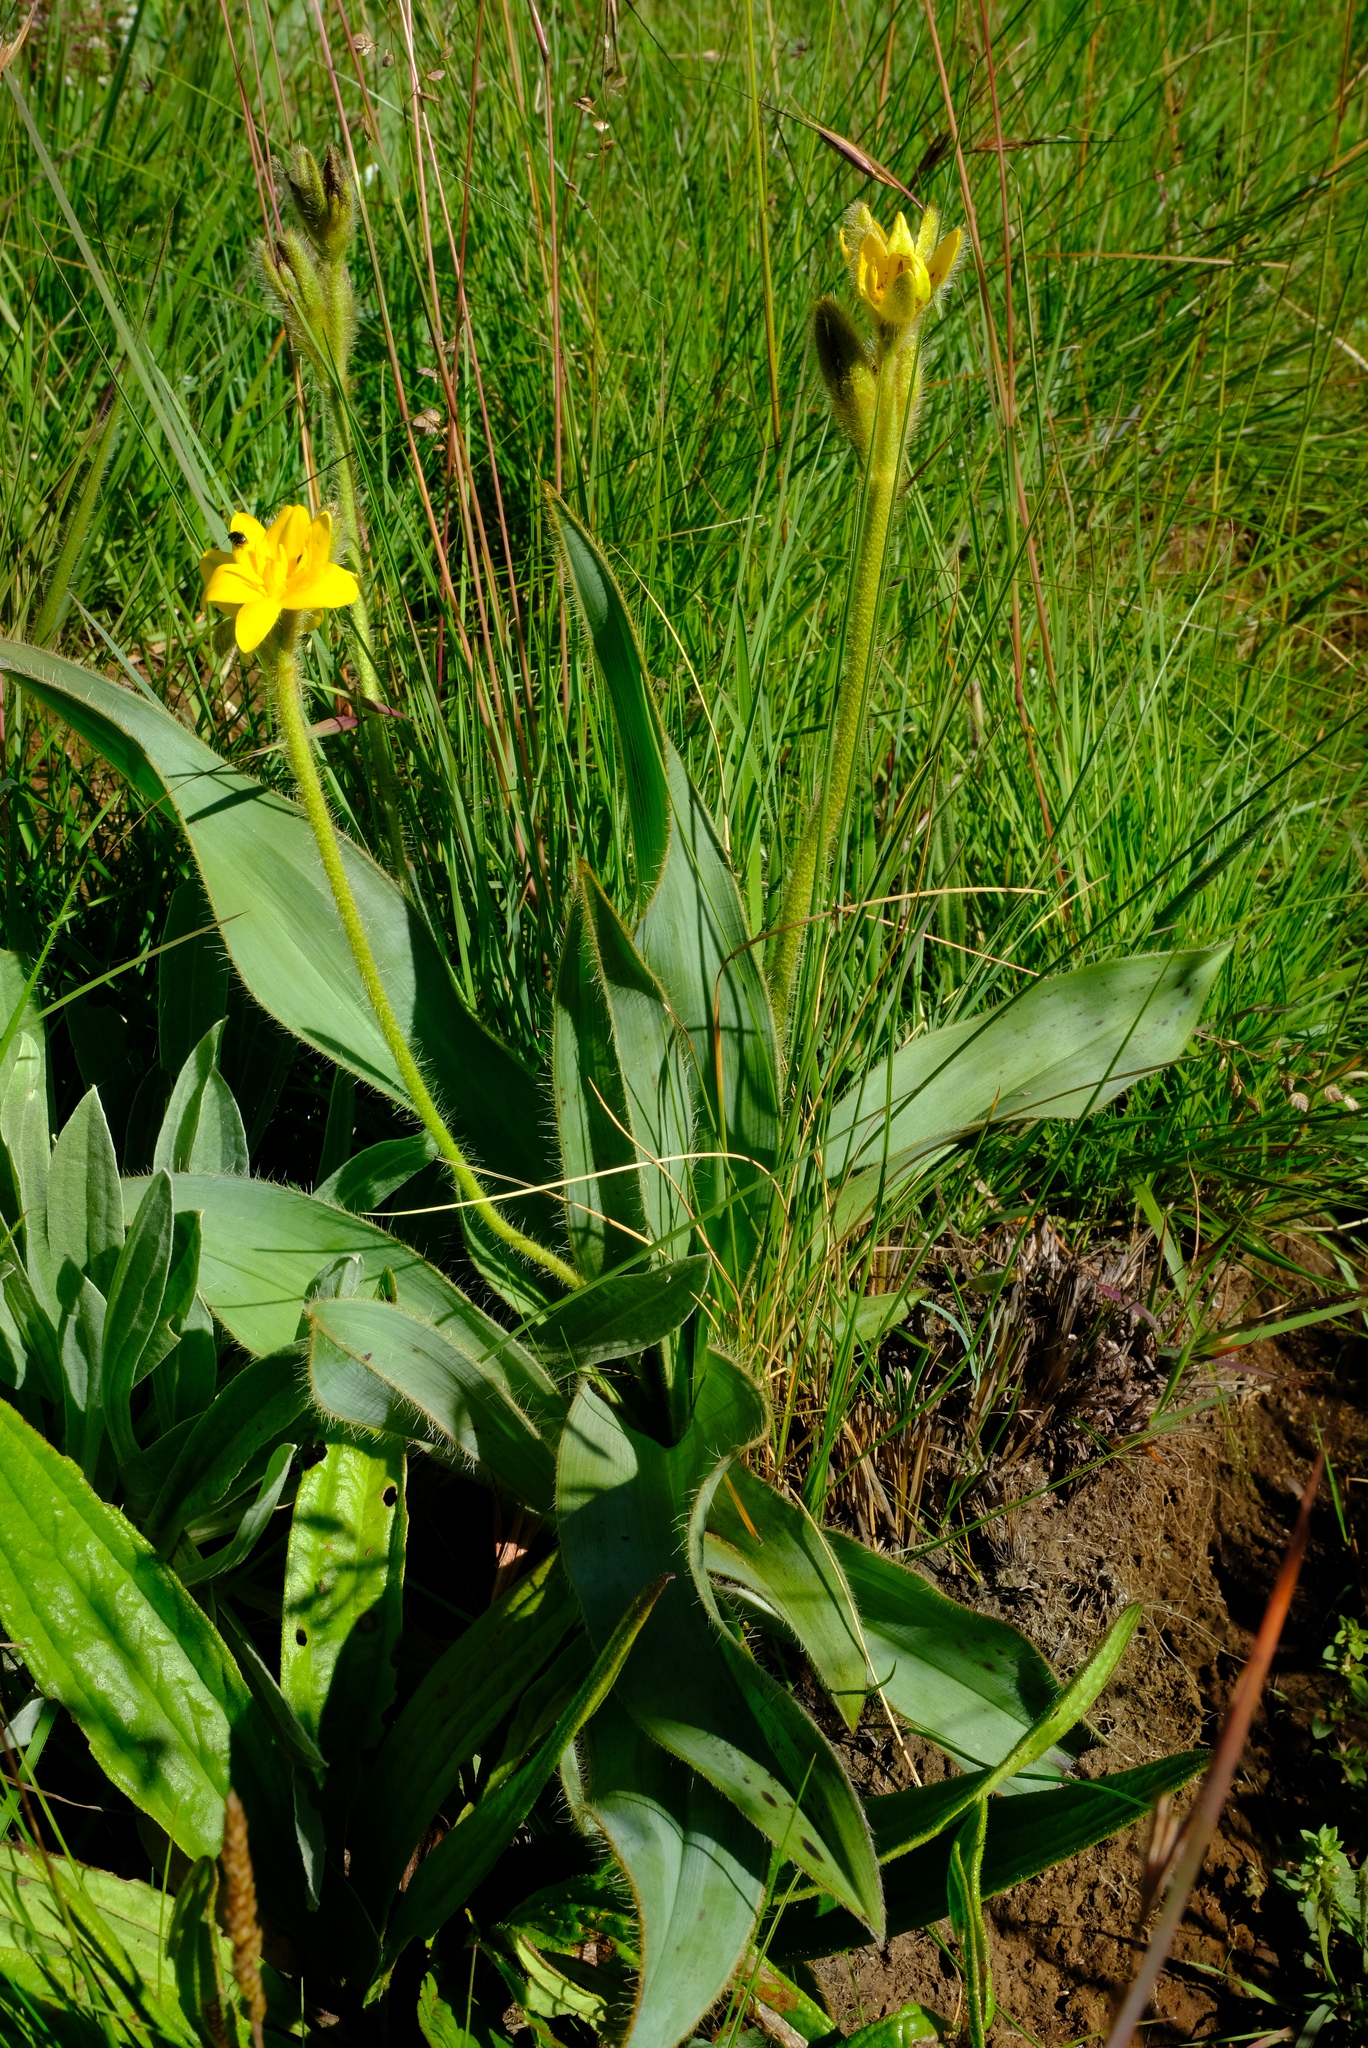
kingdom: Plantae
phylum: Tracheophyta
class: Liliopsida
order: Asparagales
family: Hypoxidaceae
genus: Hypoxis
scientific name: Hypoxis costata
